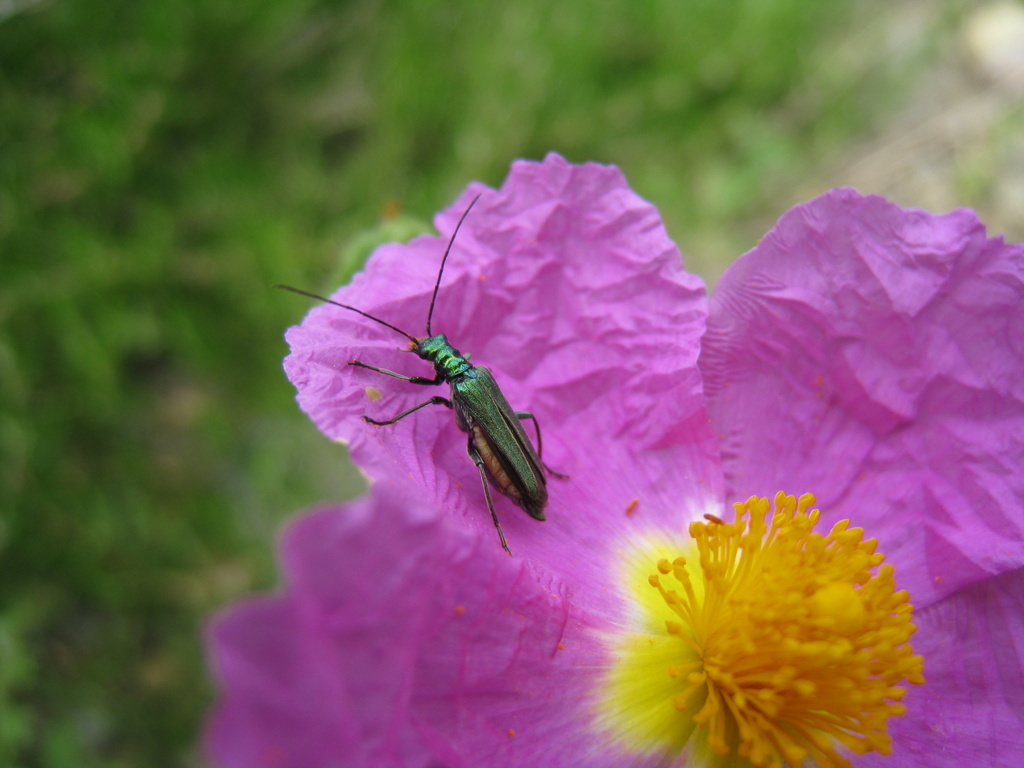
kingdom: Animalia
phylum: Arthropoda
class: Insecta
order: Coleoptera
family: Oedemeridae
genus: Oedemera
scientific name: Oedemera nobilis
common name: Swollen-thighed beetle
